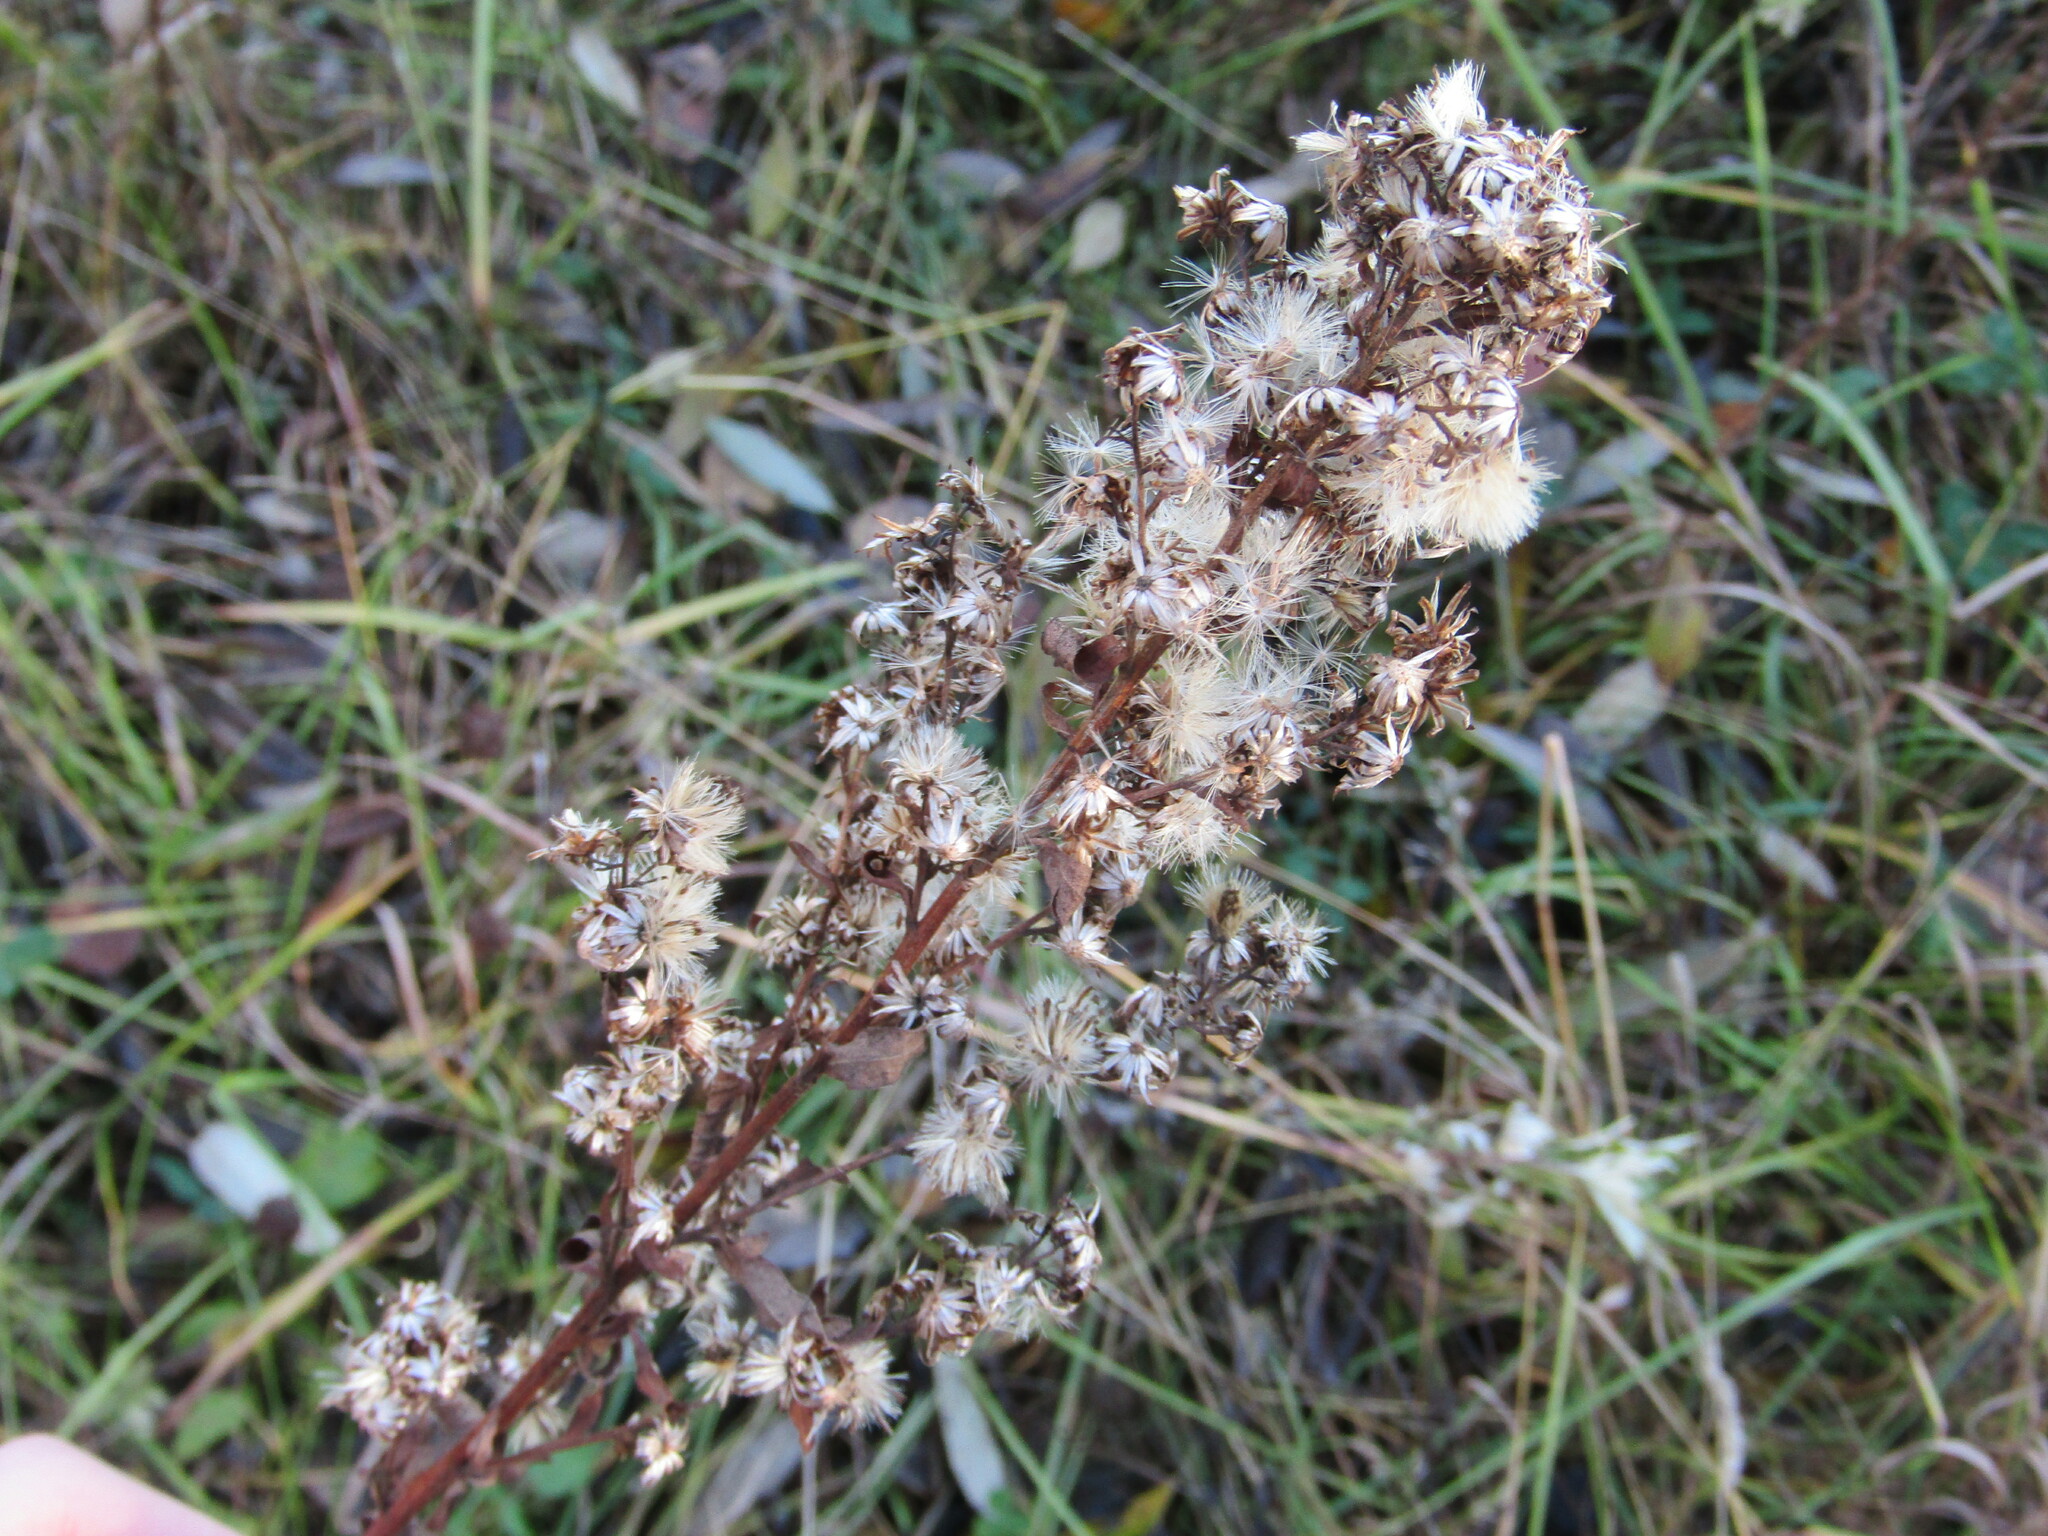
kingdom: Plantae
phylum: Tracheophyta
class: Magnoliopsida
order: Asterales
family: Asteraceae
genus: Solidago
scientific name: Solidago virgaurea
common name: Goldenrod
